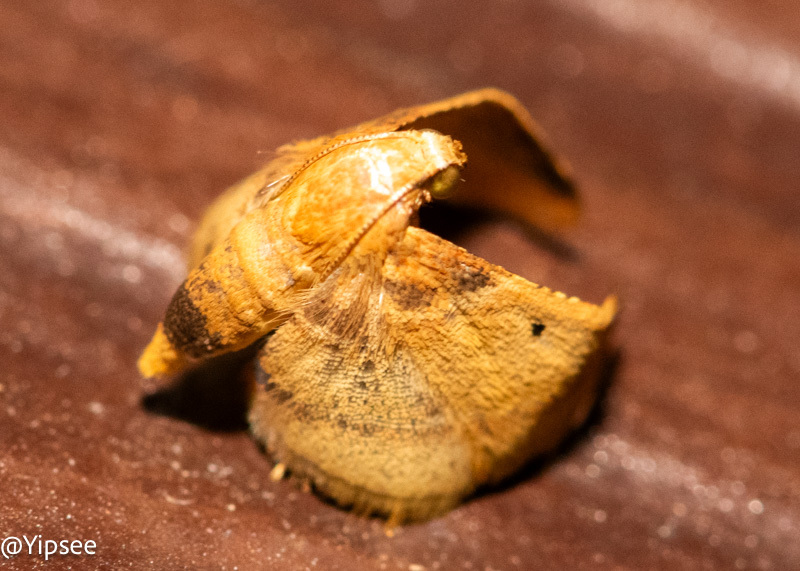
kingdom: Animalia
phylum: Arthropoda
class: Insecta
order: Lepidoptera
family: Pyralidae
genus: Tanyethira
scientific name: Tanyethira duplicilinea
